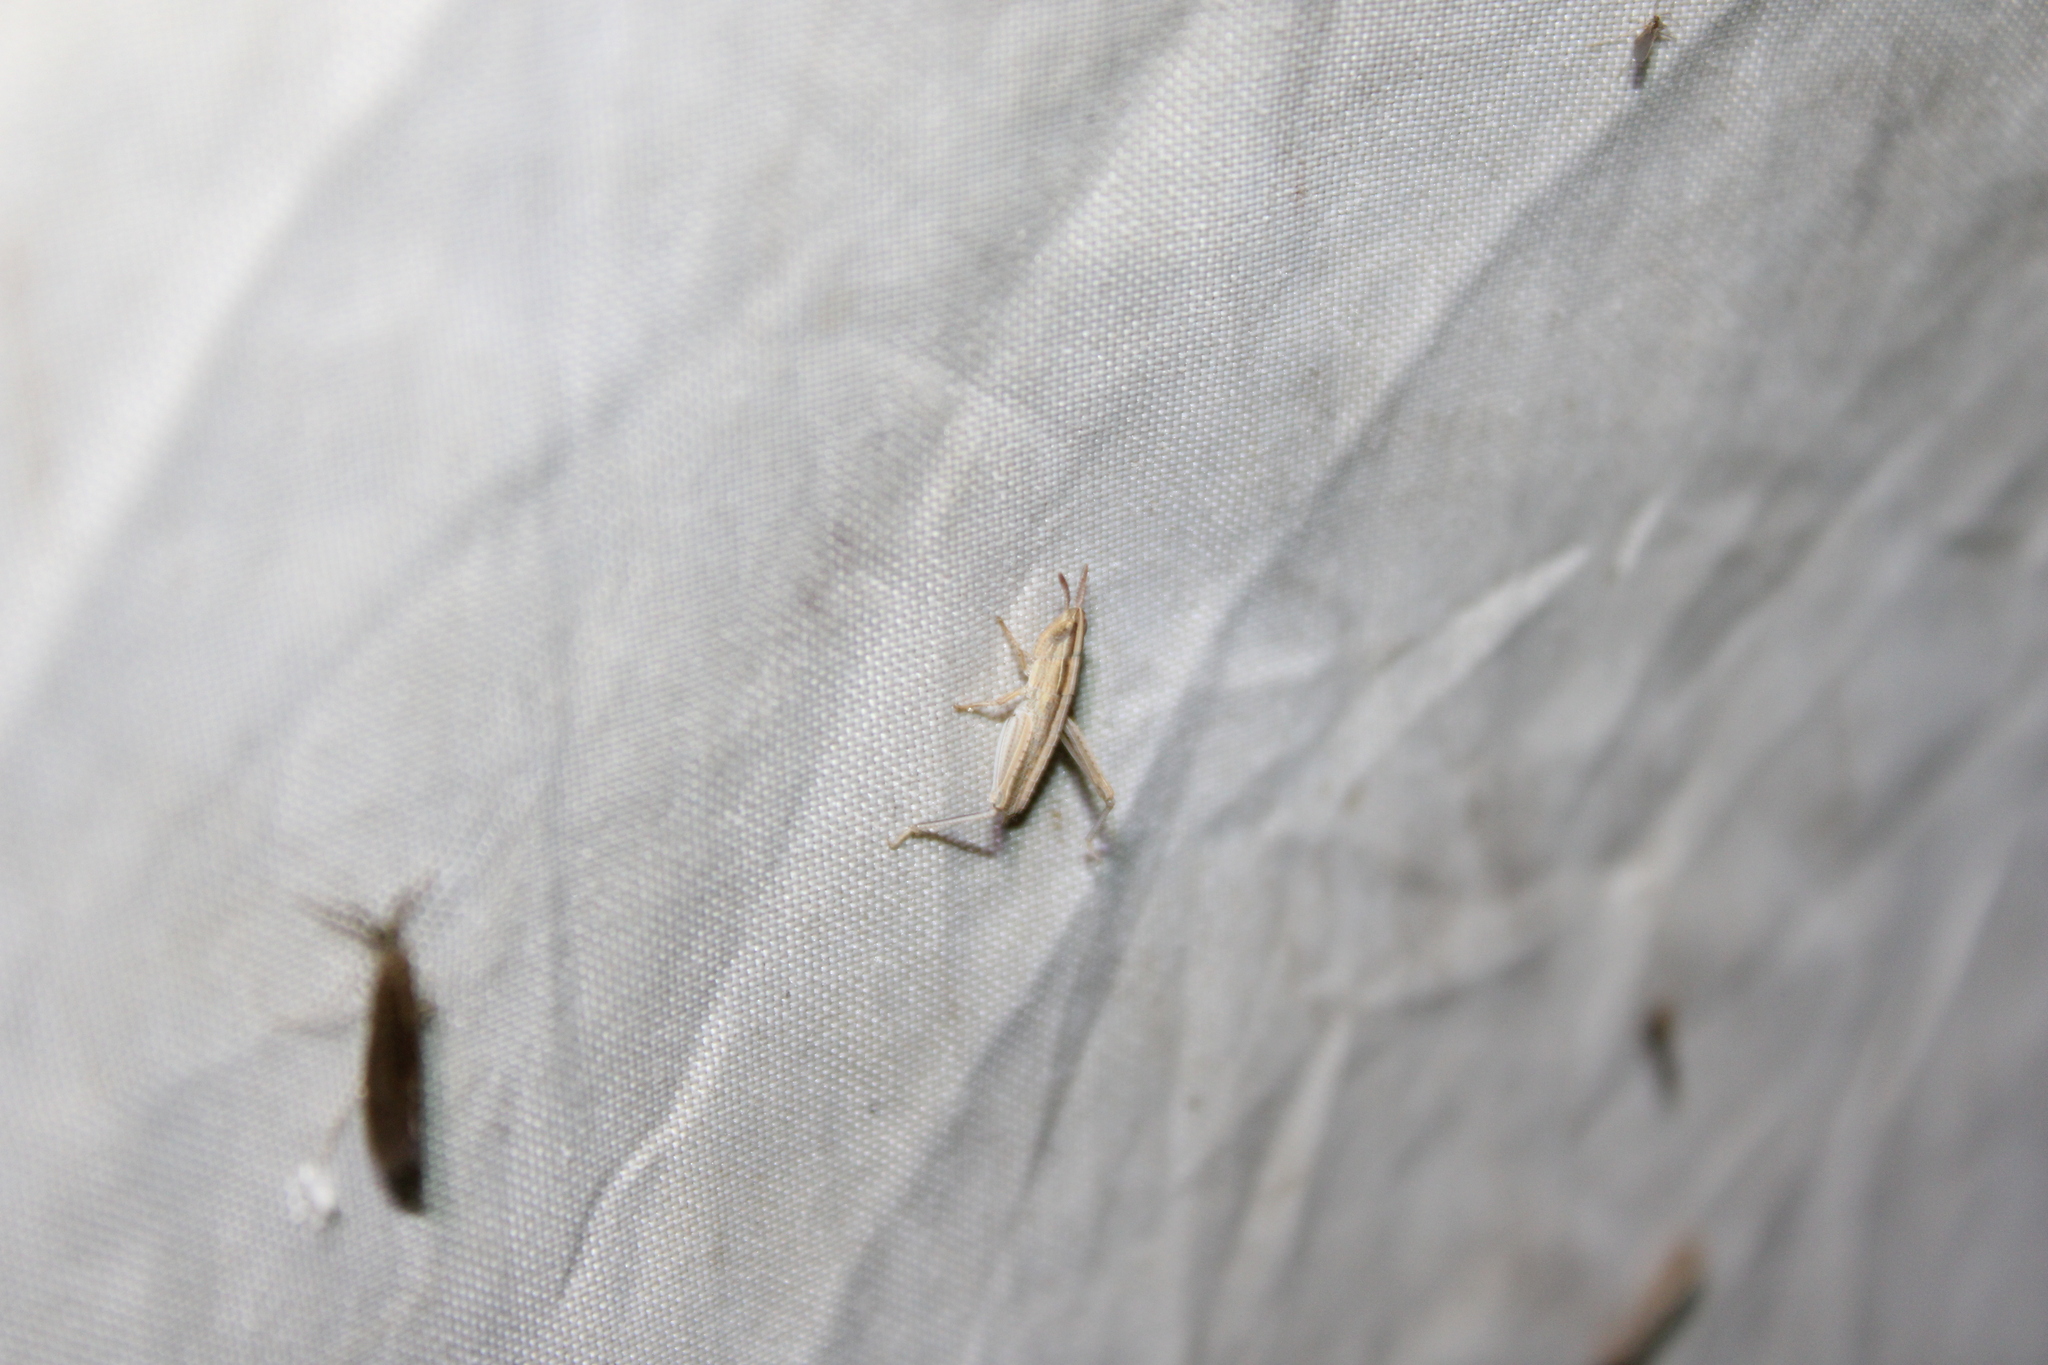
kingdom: Animalia
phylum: Arthropoda
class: Insecta
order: Orthoptera
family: Acrididae
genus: Eritettix
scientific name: Eritettix simplex
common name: Velvet-striped grasshopper
